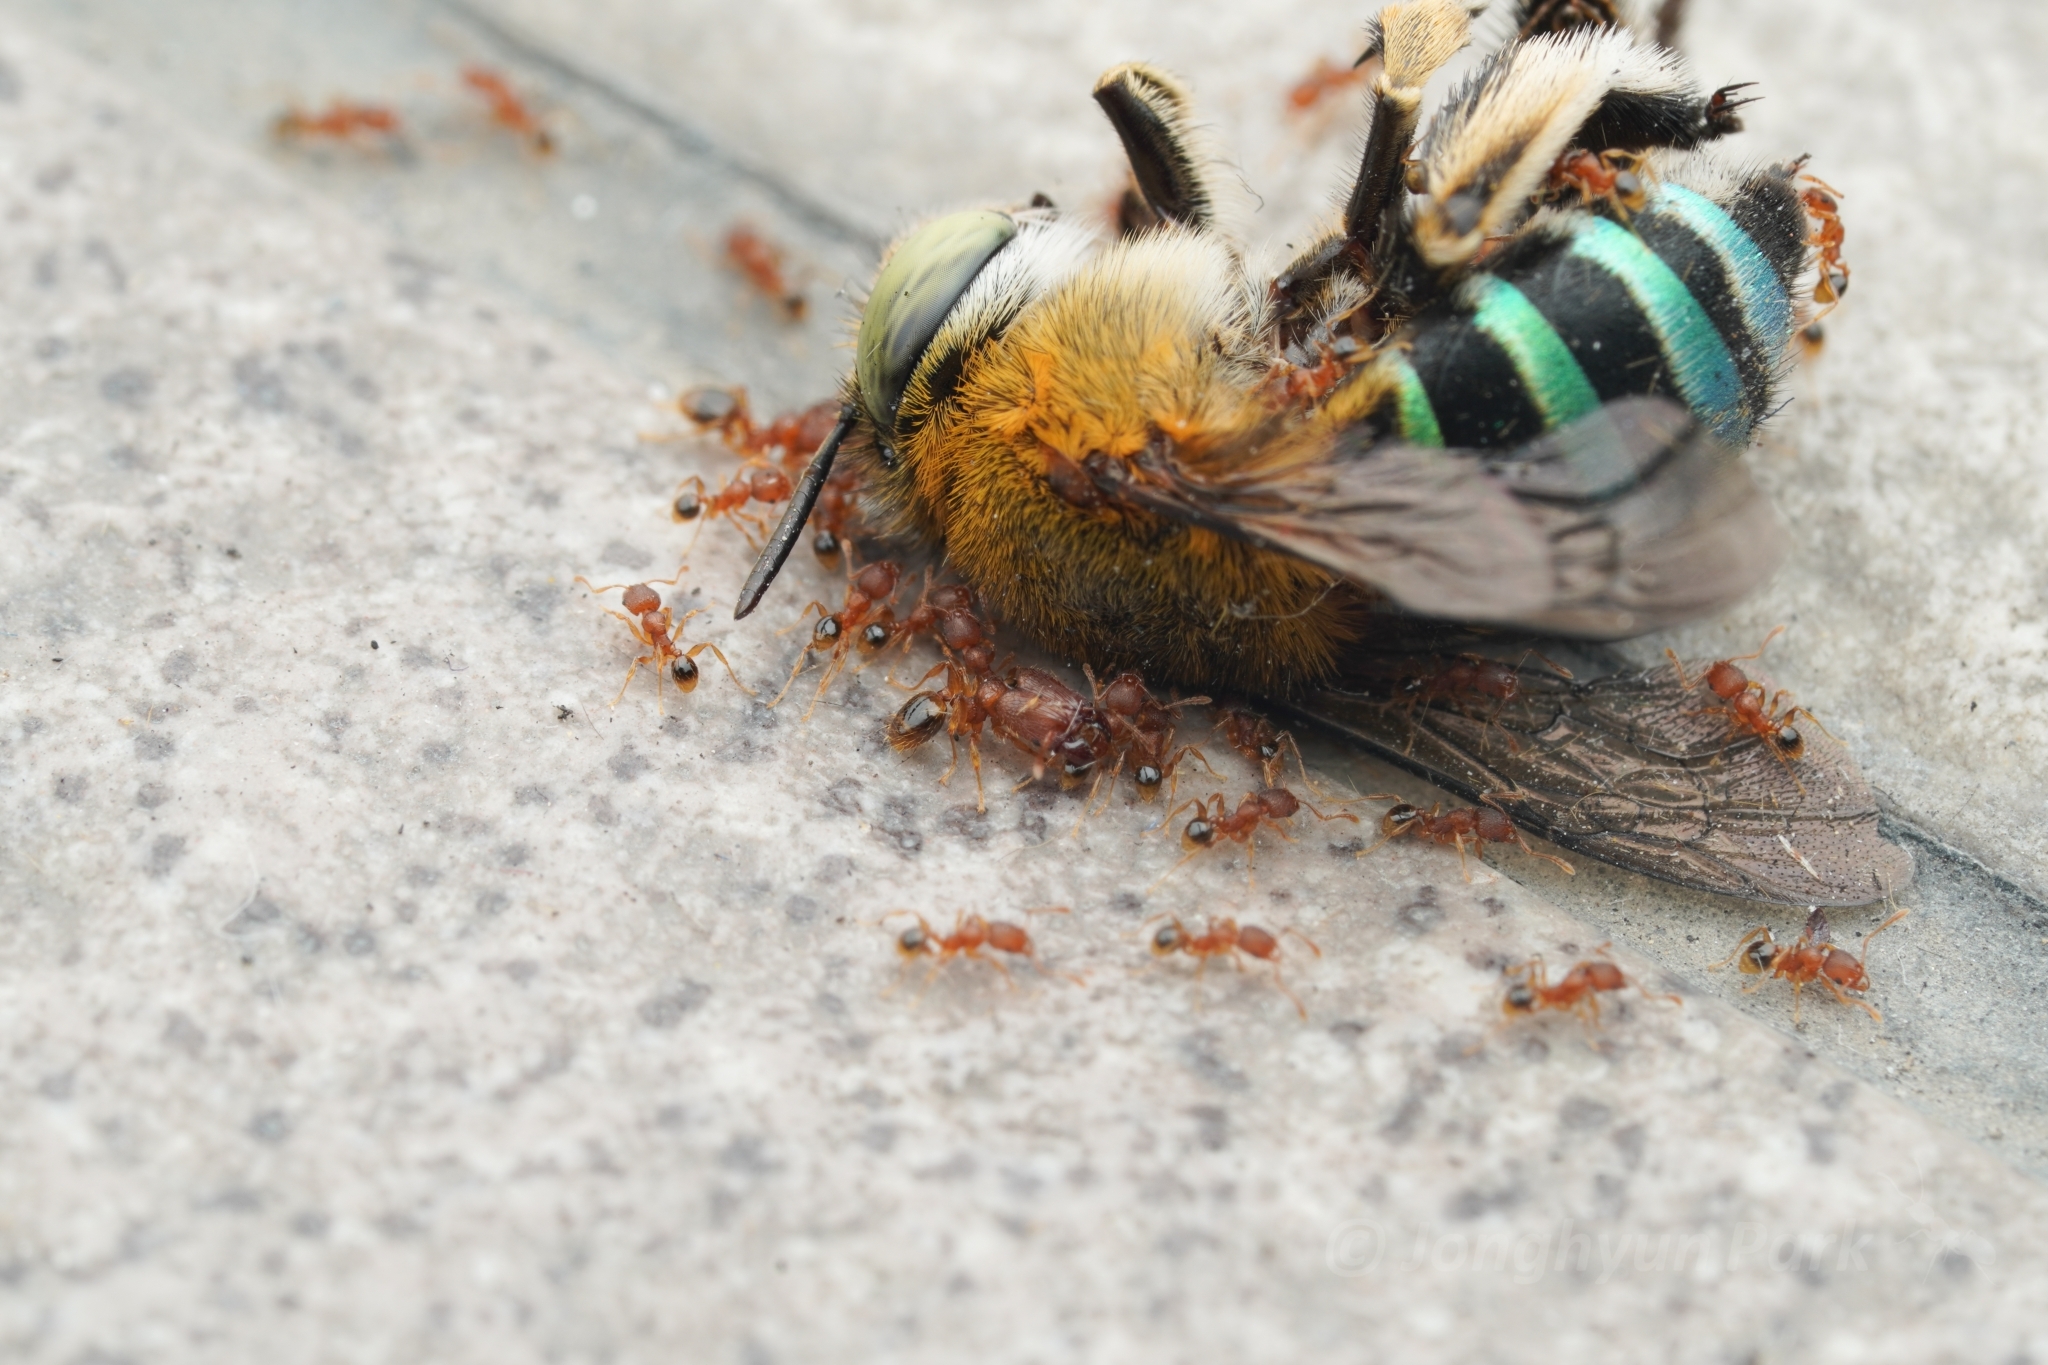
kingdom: Animalia
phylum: Arthropoda
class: Insecta
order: Hymenoptera
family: Formicidae
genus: Pheidole
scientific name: Pheidole parva
